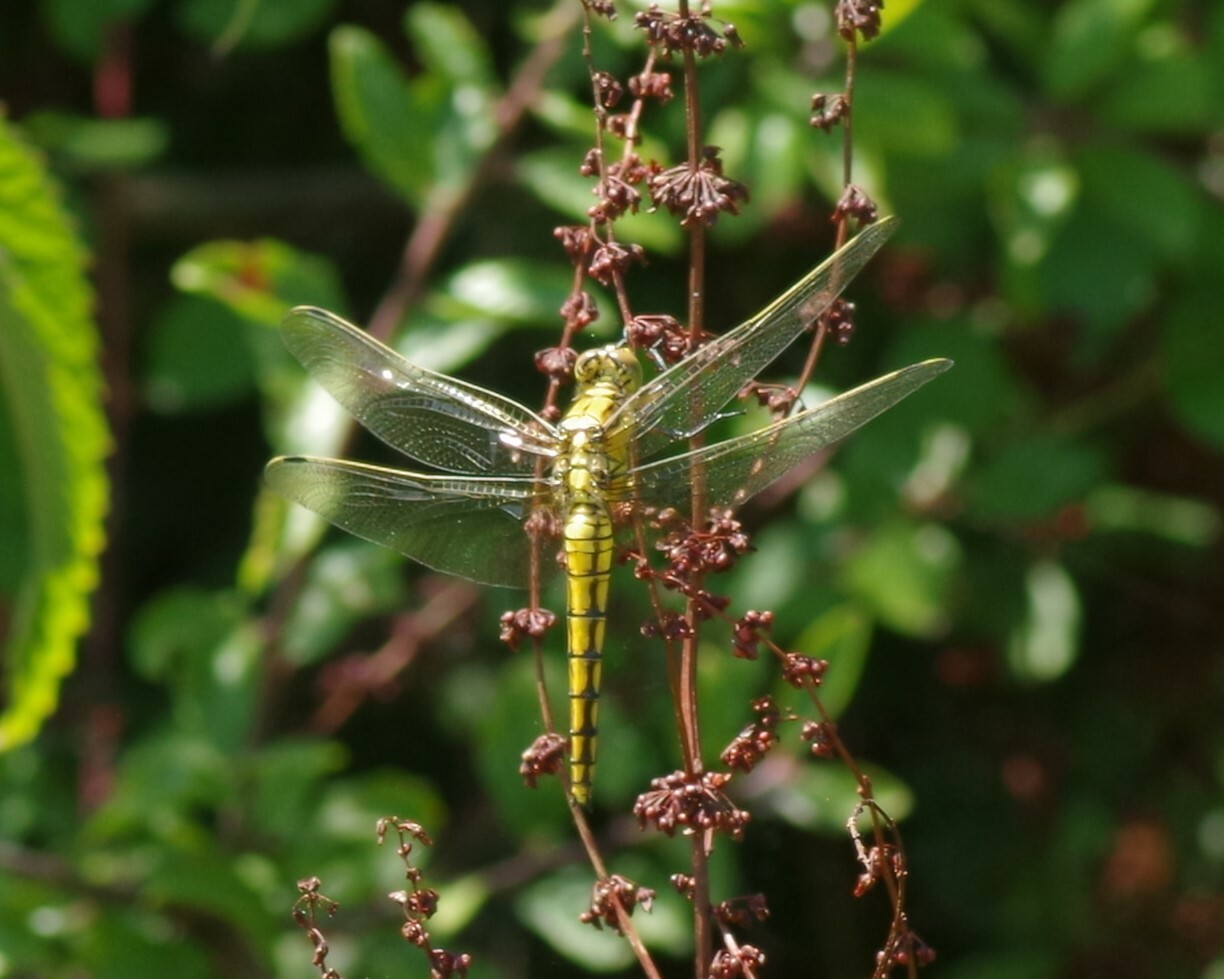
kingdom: Animalia
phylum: Arthropoda
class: Insecta
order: Odonata
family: Libellulidae
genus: Orthetrum
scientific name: Orthetrum cancellatum
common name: Black-tailed skimmer
